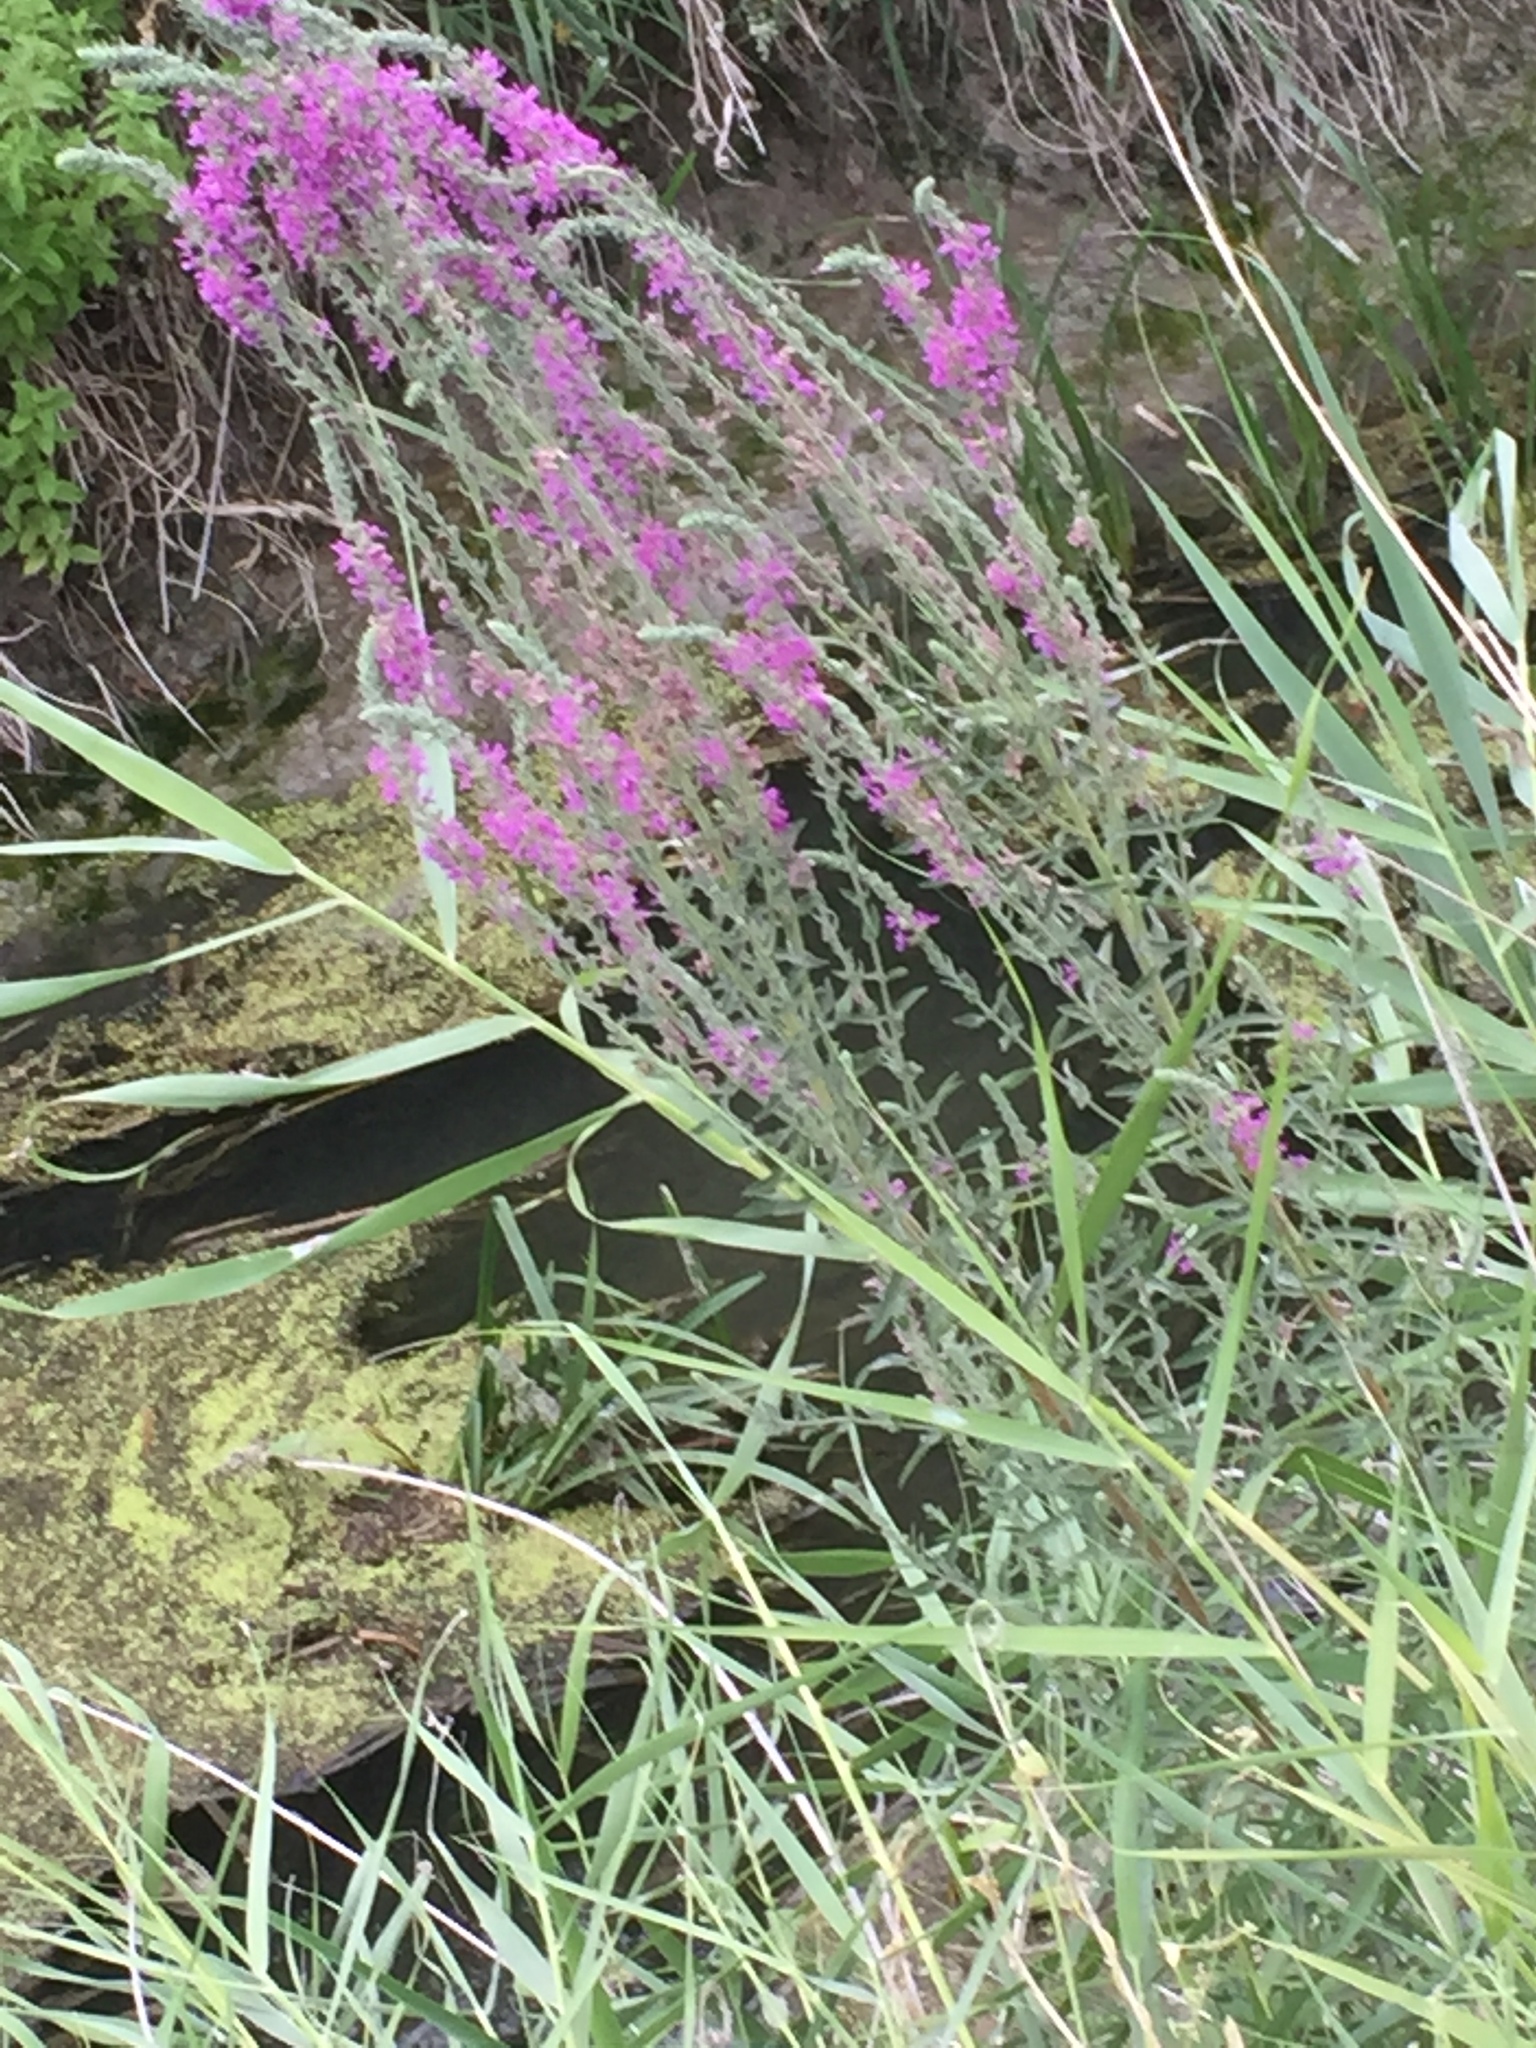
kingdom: Plantae
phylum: Tracheophyta
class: Magnoliopsida
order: Myrtales
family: Lythraceae
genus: Lythrum
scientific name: Lythrum salicaria
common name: Purple loosestrife
